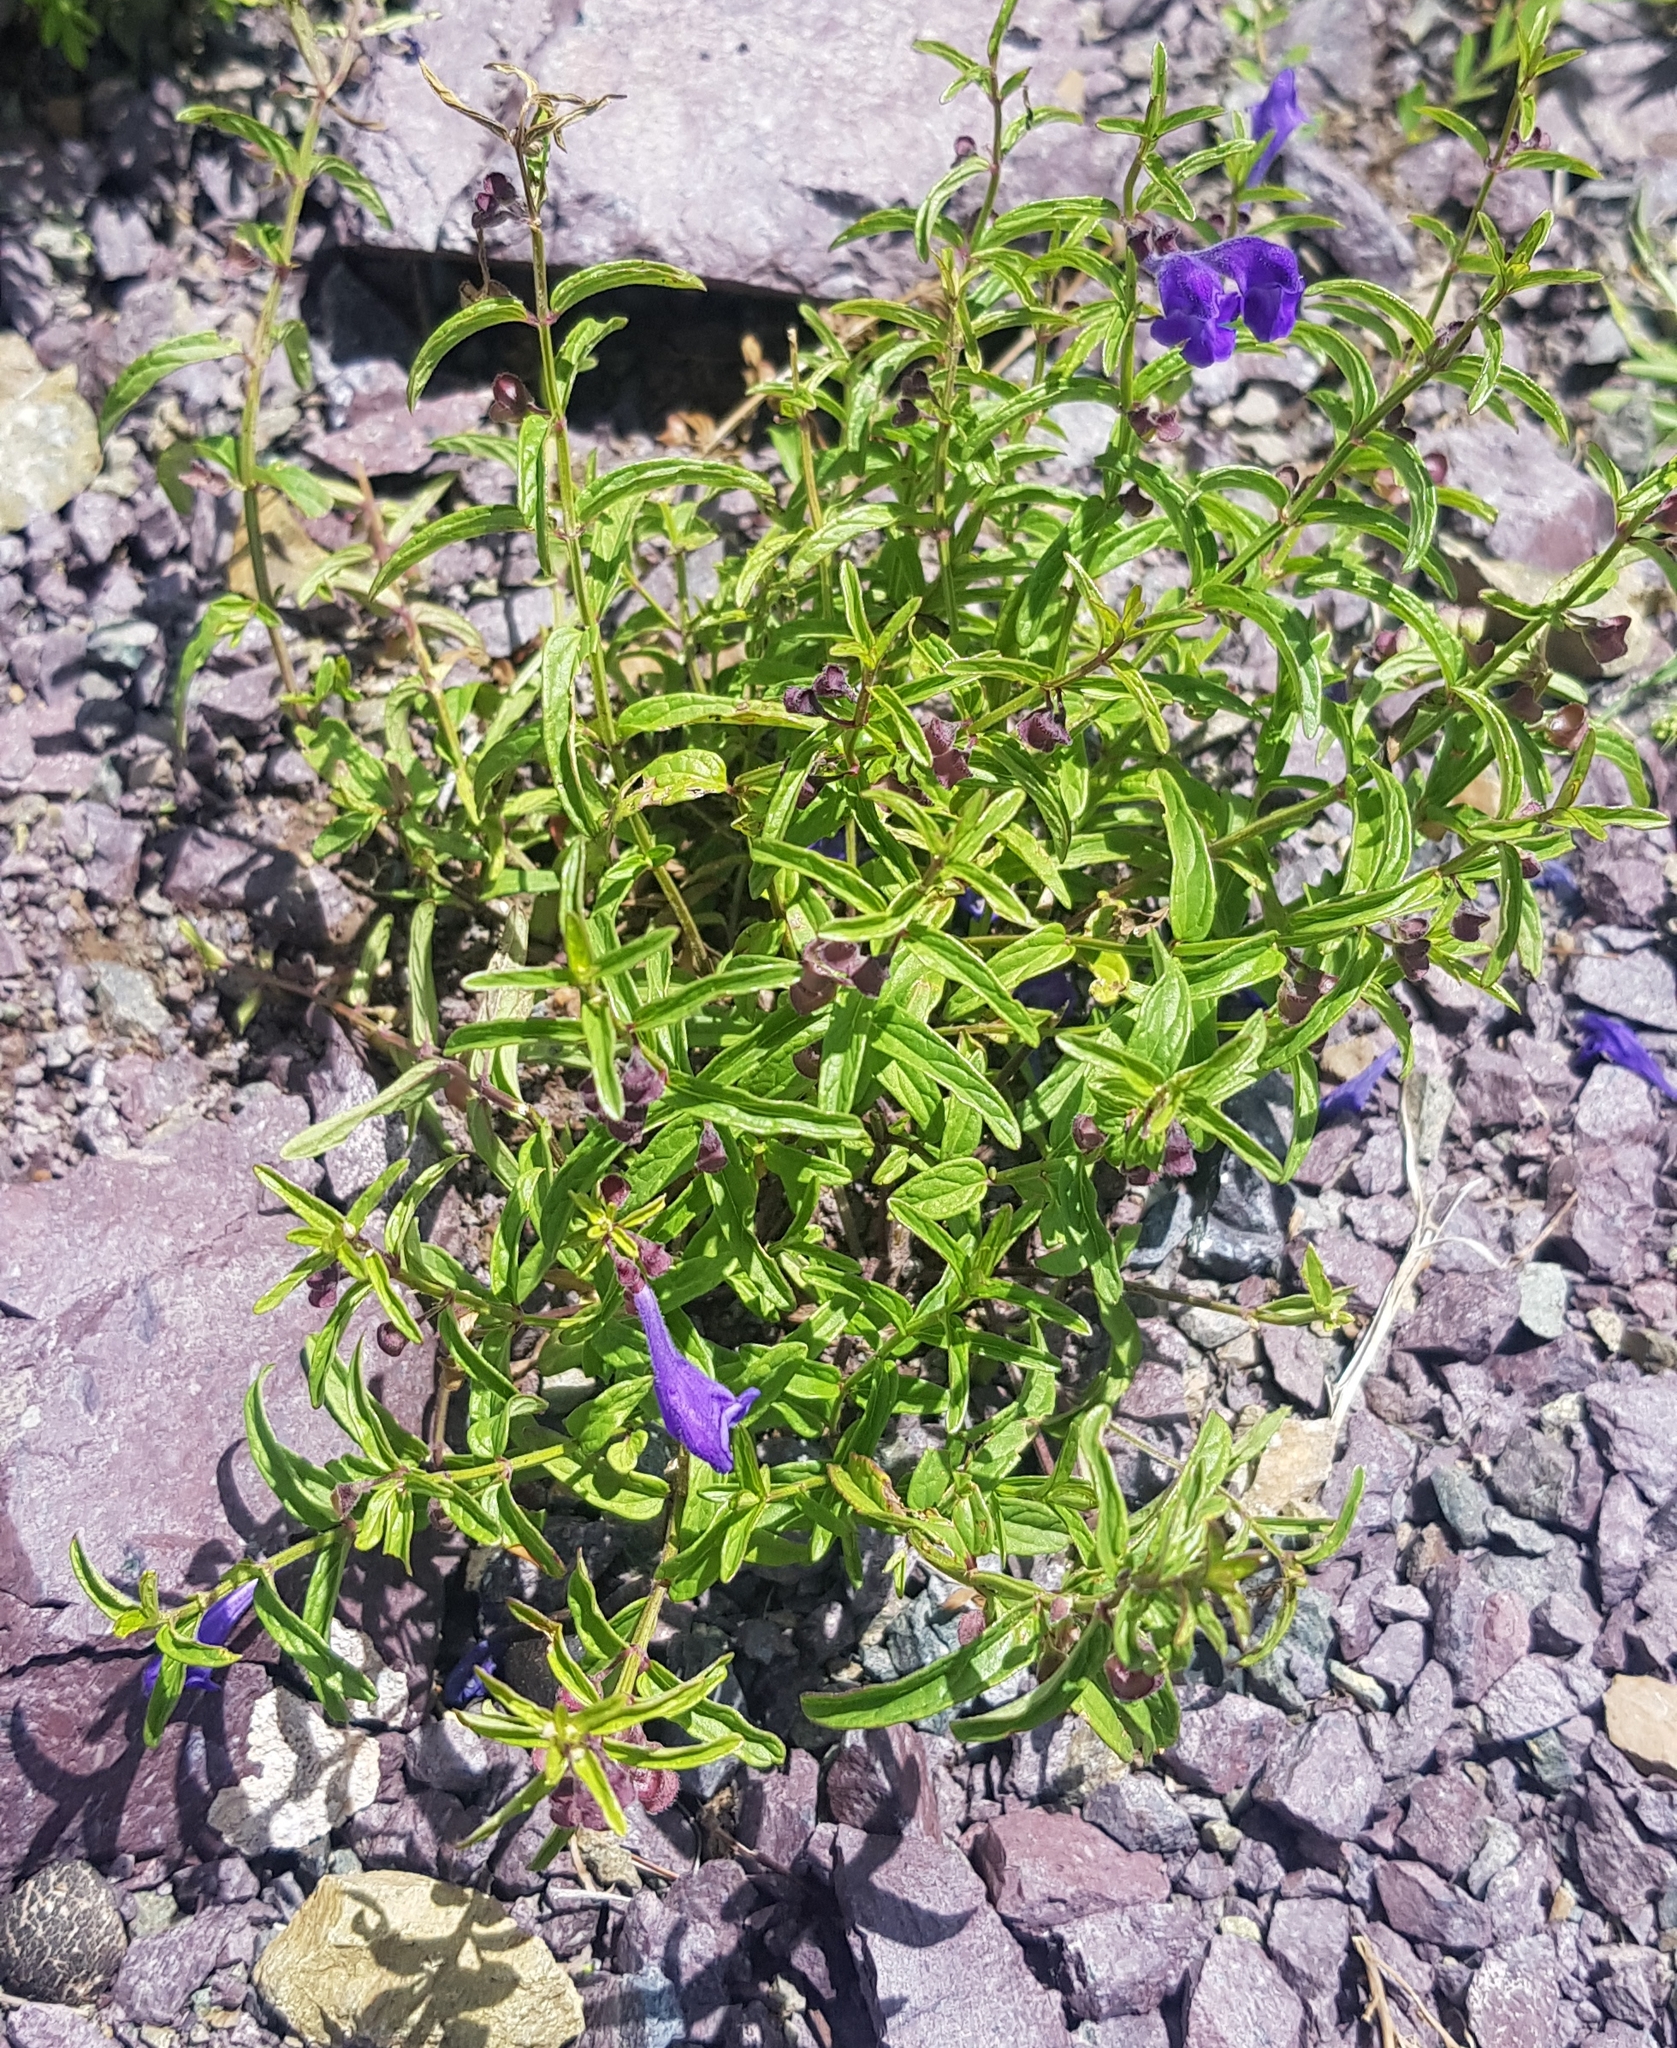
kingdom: Plantae
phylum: Tracheophyta
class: Magnoliopsida
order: Lamiales
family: Lamiaceae
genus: Scutellaria
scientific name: Scutellaria scordiifolia
